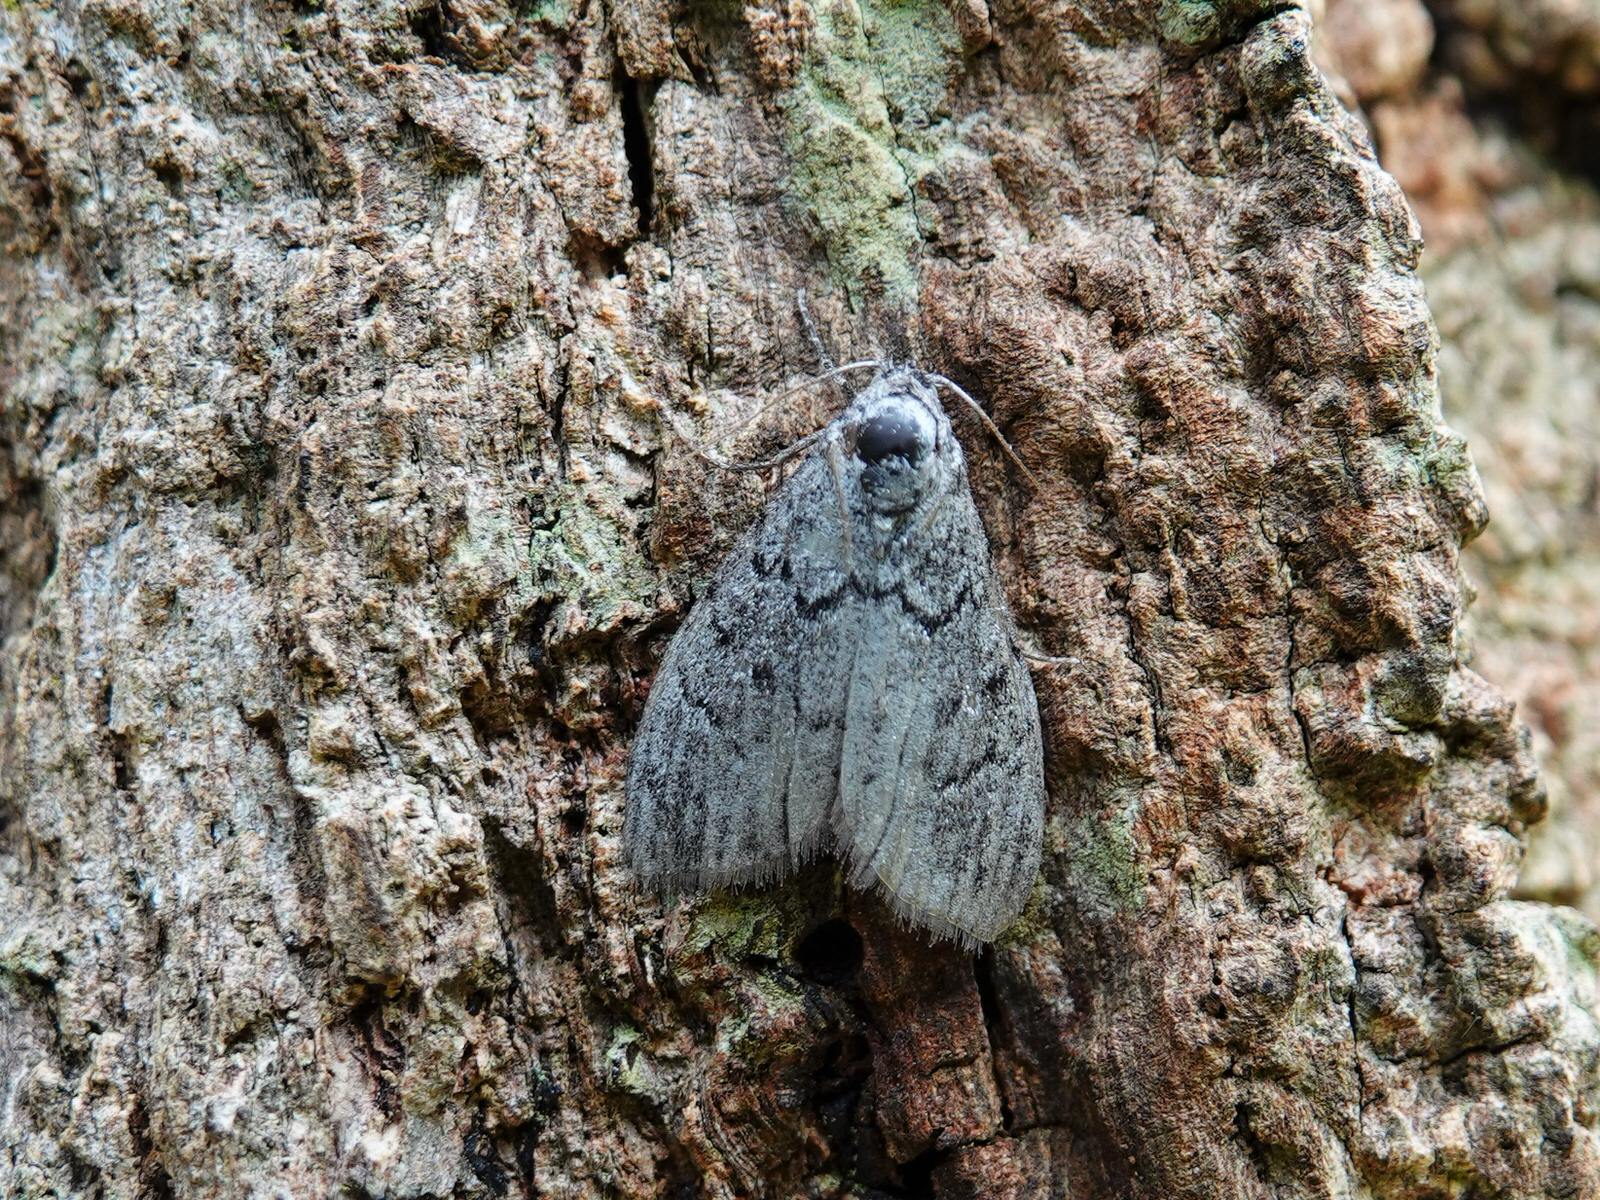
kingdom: Animalia
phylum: Arthropoda
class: Insecta
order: Lepidoptera
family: Nolidae
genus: Uraba
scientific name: Uraba lugens
